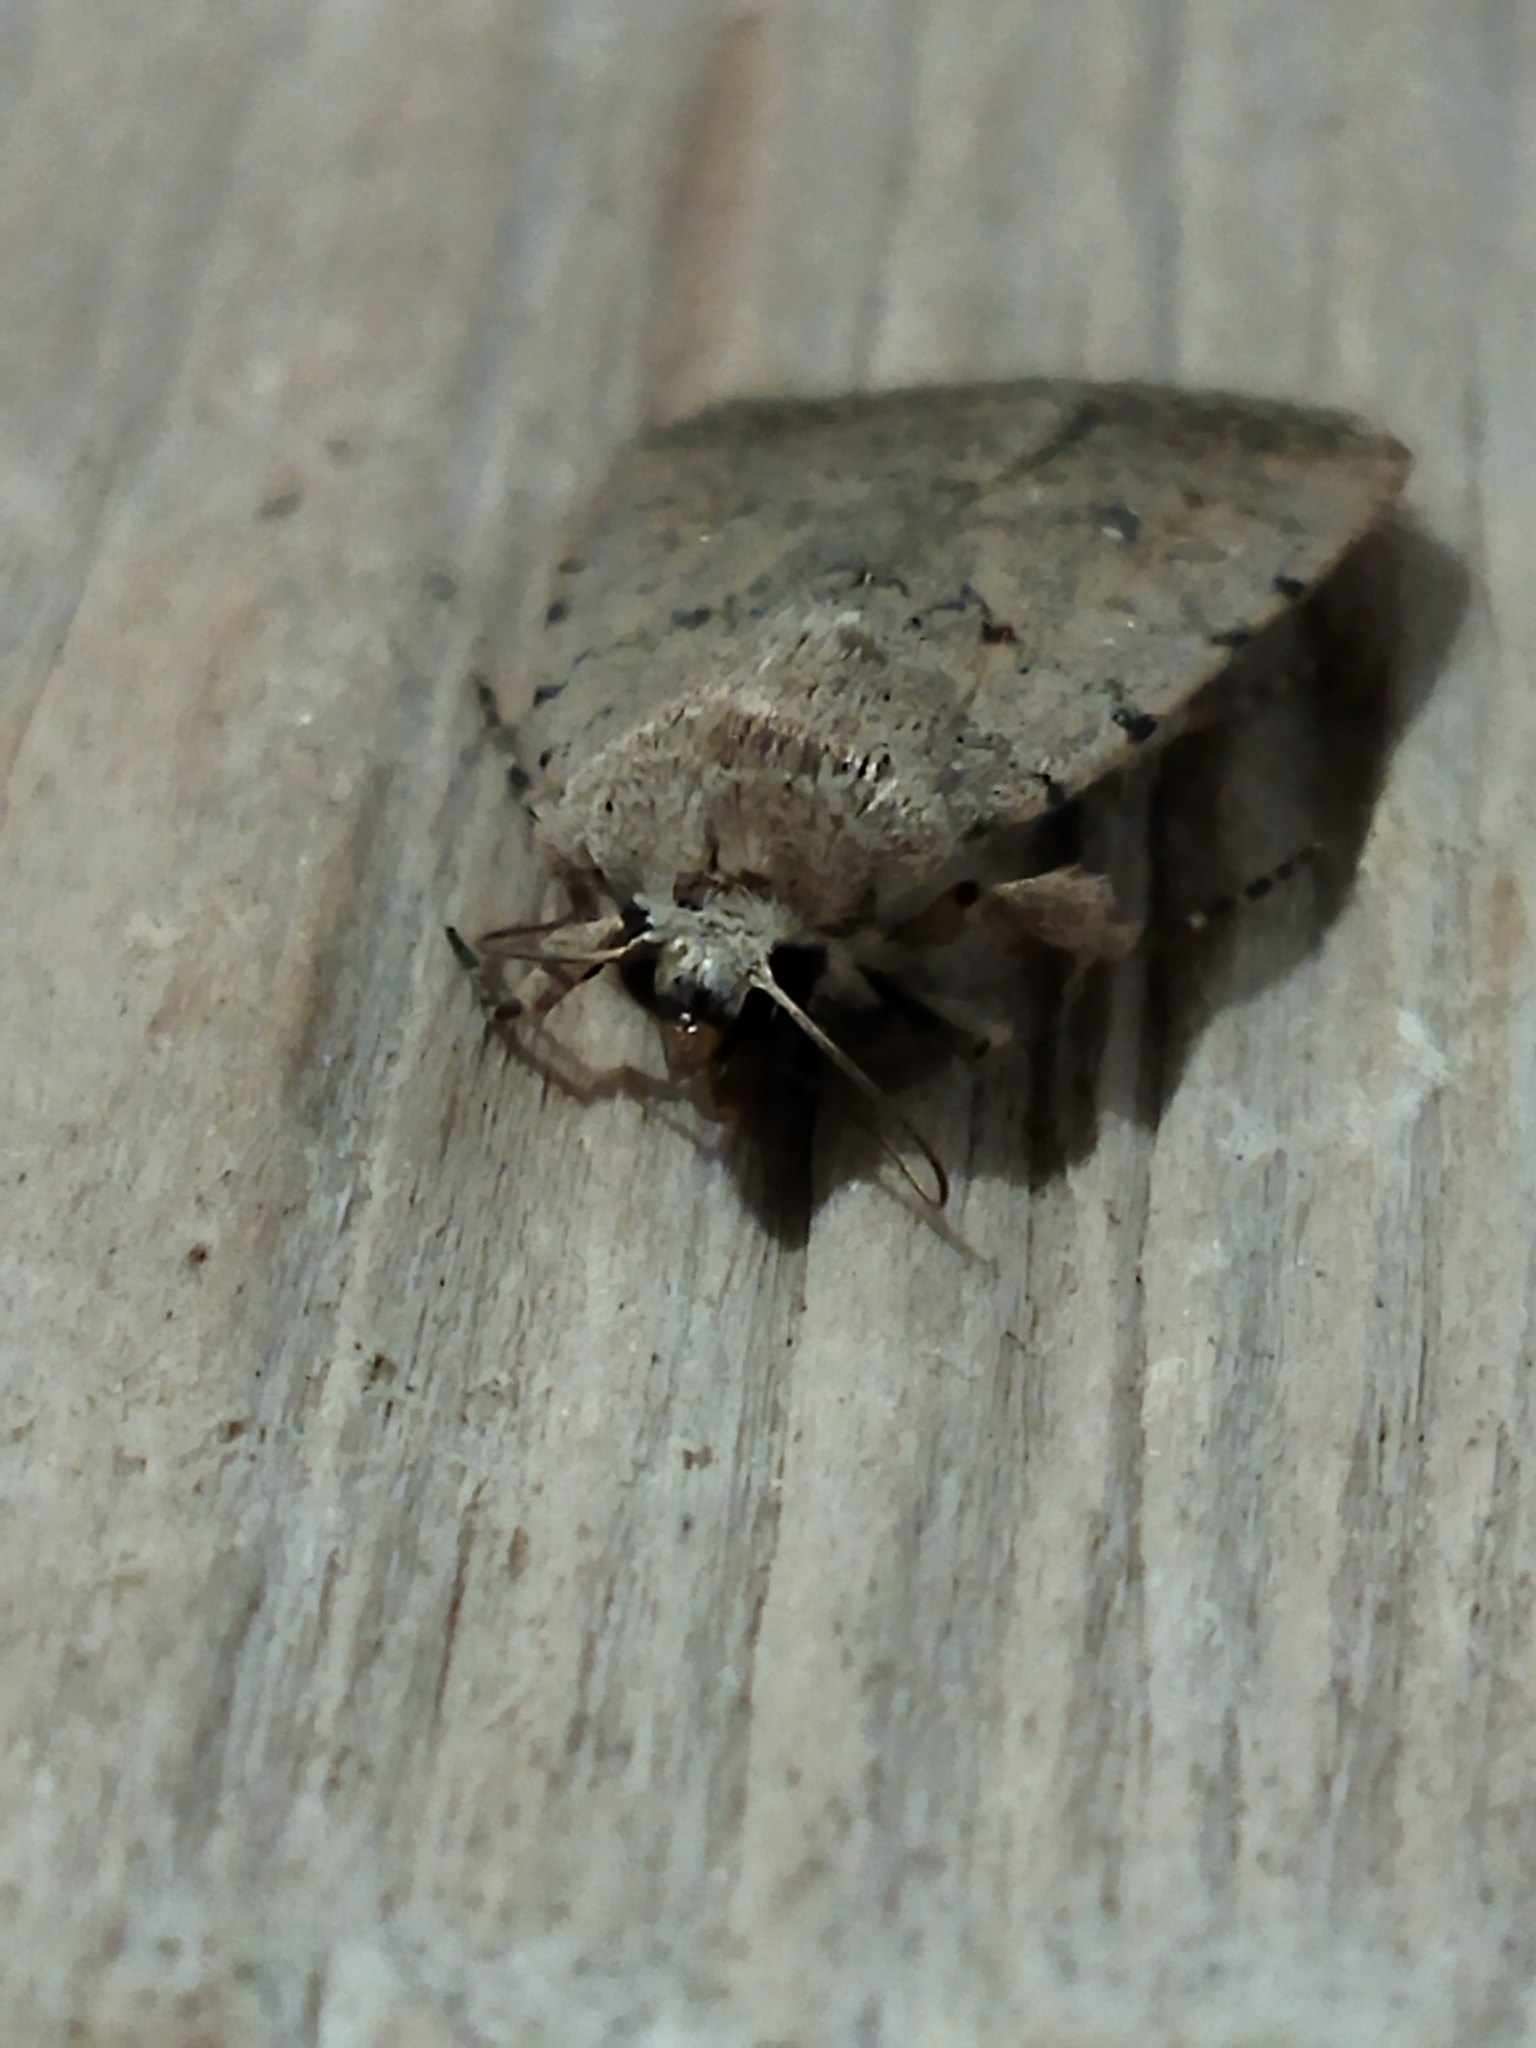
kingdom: Animalia
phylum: Arthropoda
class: Insecta
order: Lepidoptera
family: Noctuidae
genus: Caradrina
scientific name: Caradrina clavipalpis
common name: Pale mottled willow
